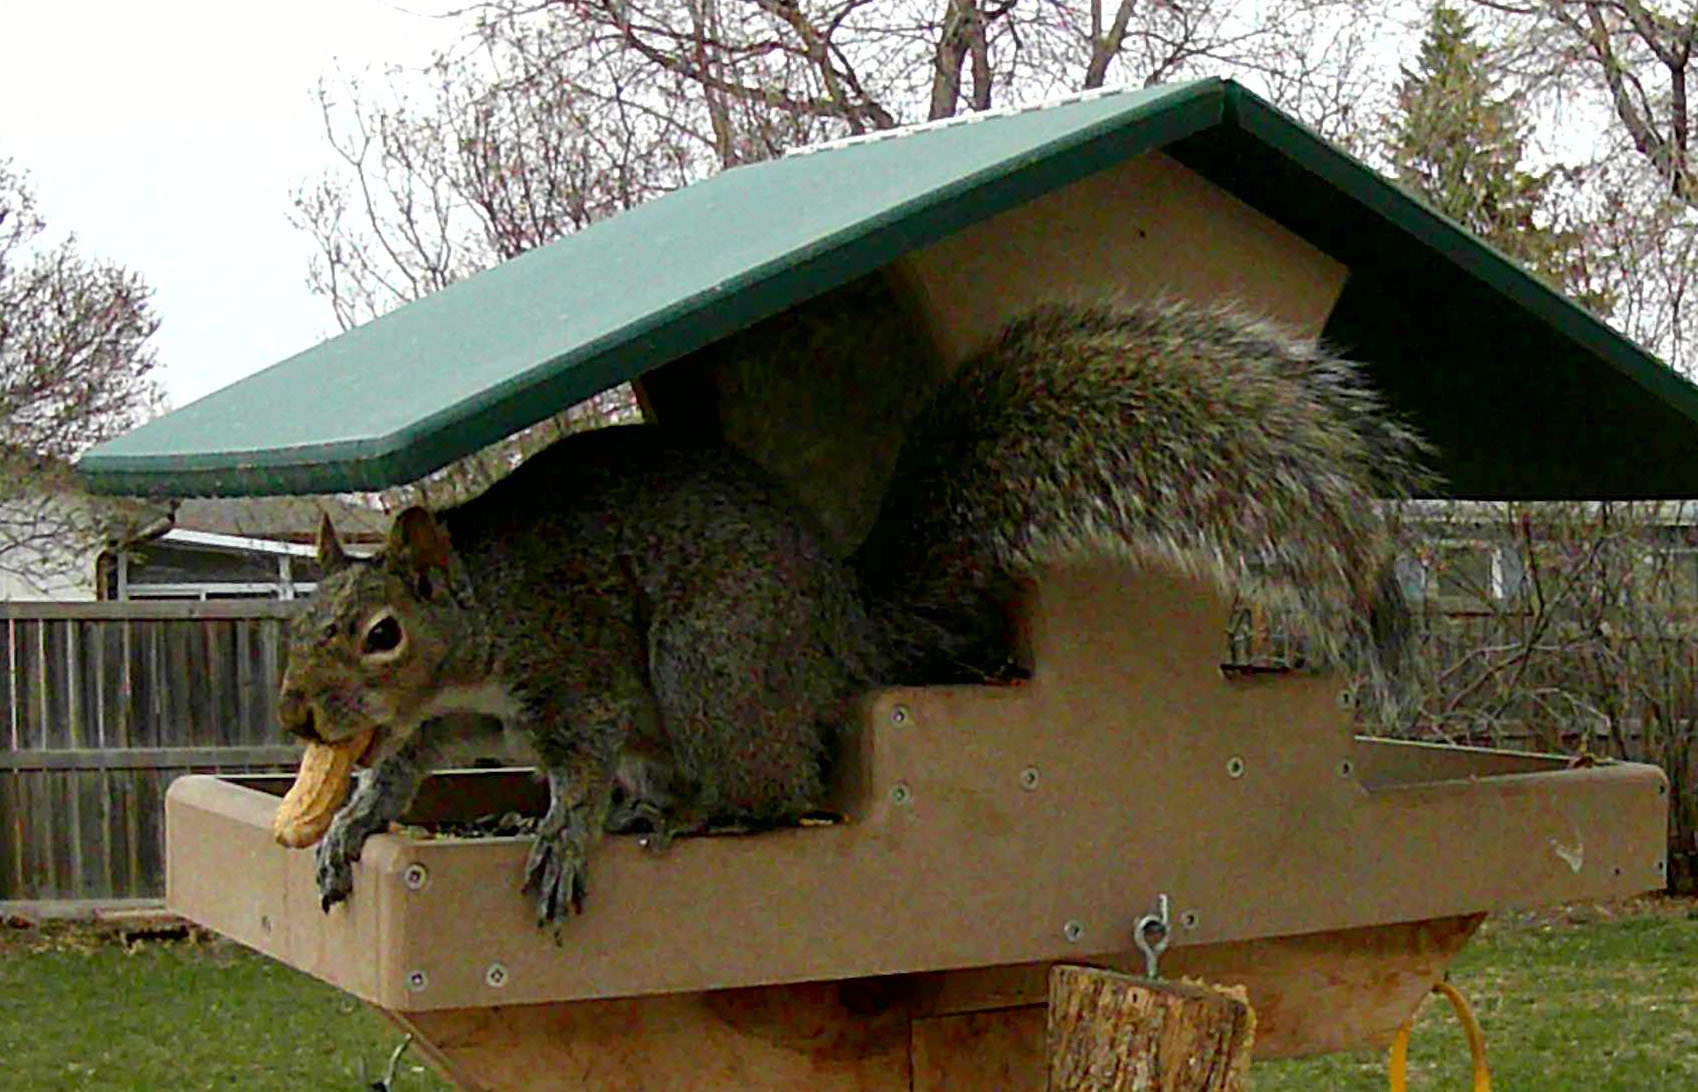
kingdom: Animalia
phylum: Chordata
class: Mammalia
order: Rodentia
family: Sciuridae
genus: Sciurus
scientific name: Sciurus carolinensis
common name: Eastern gray squirrel
